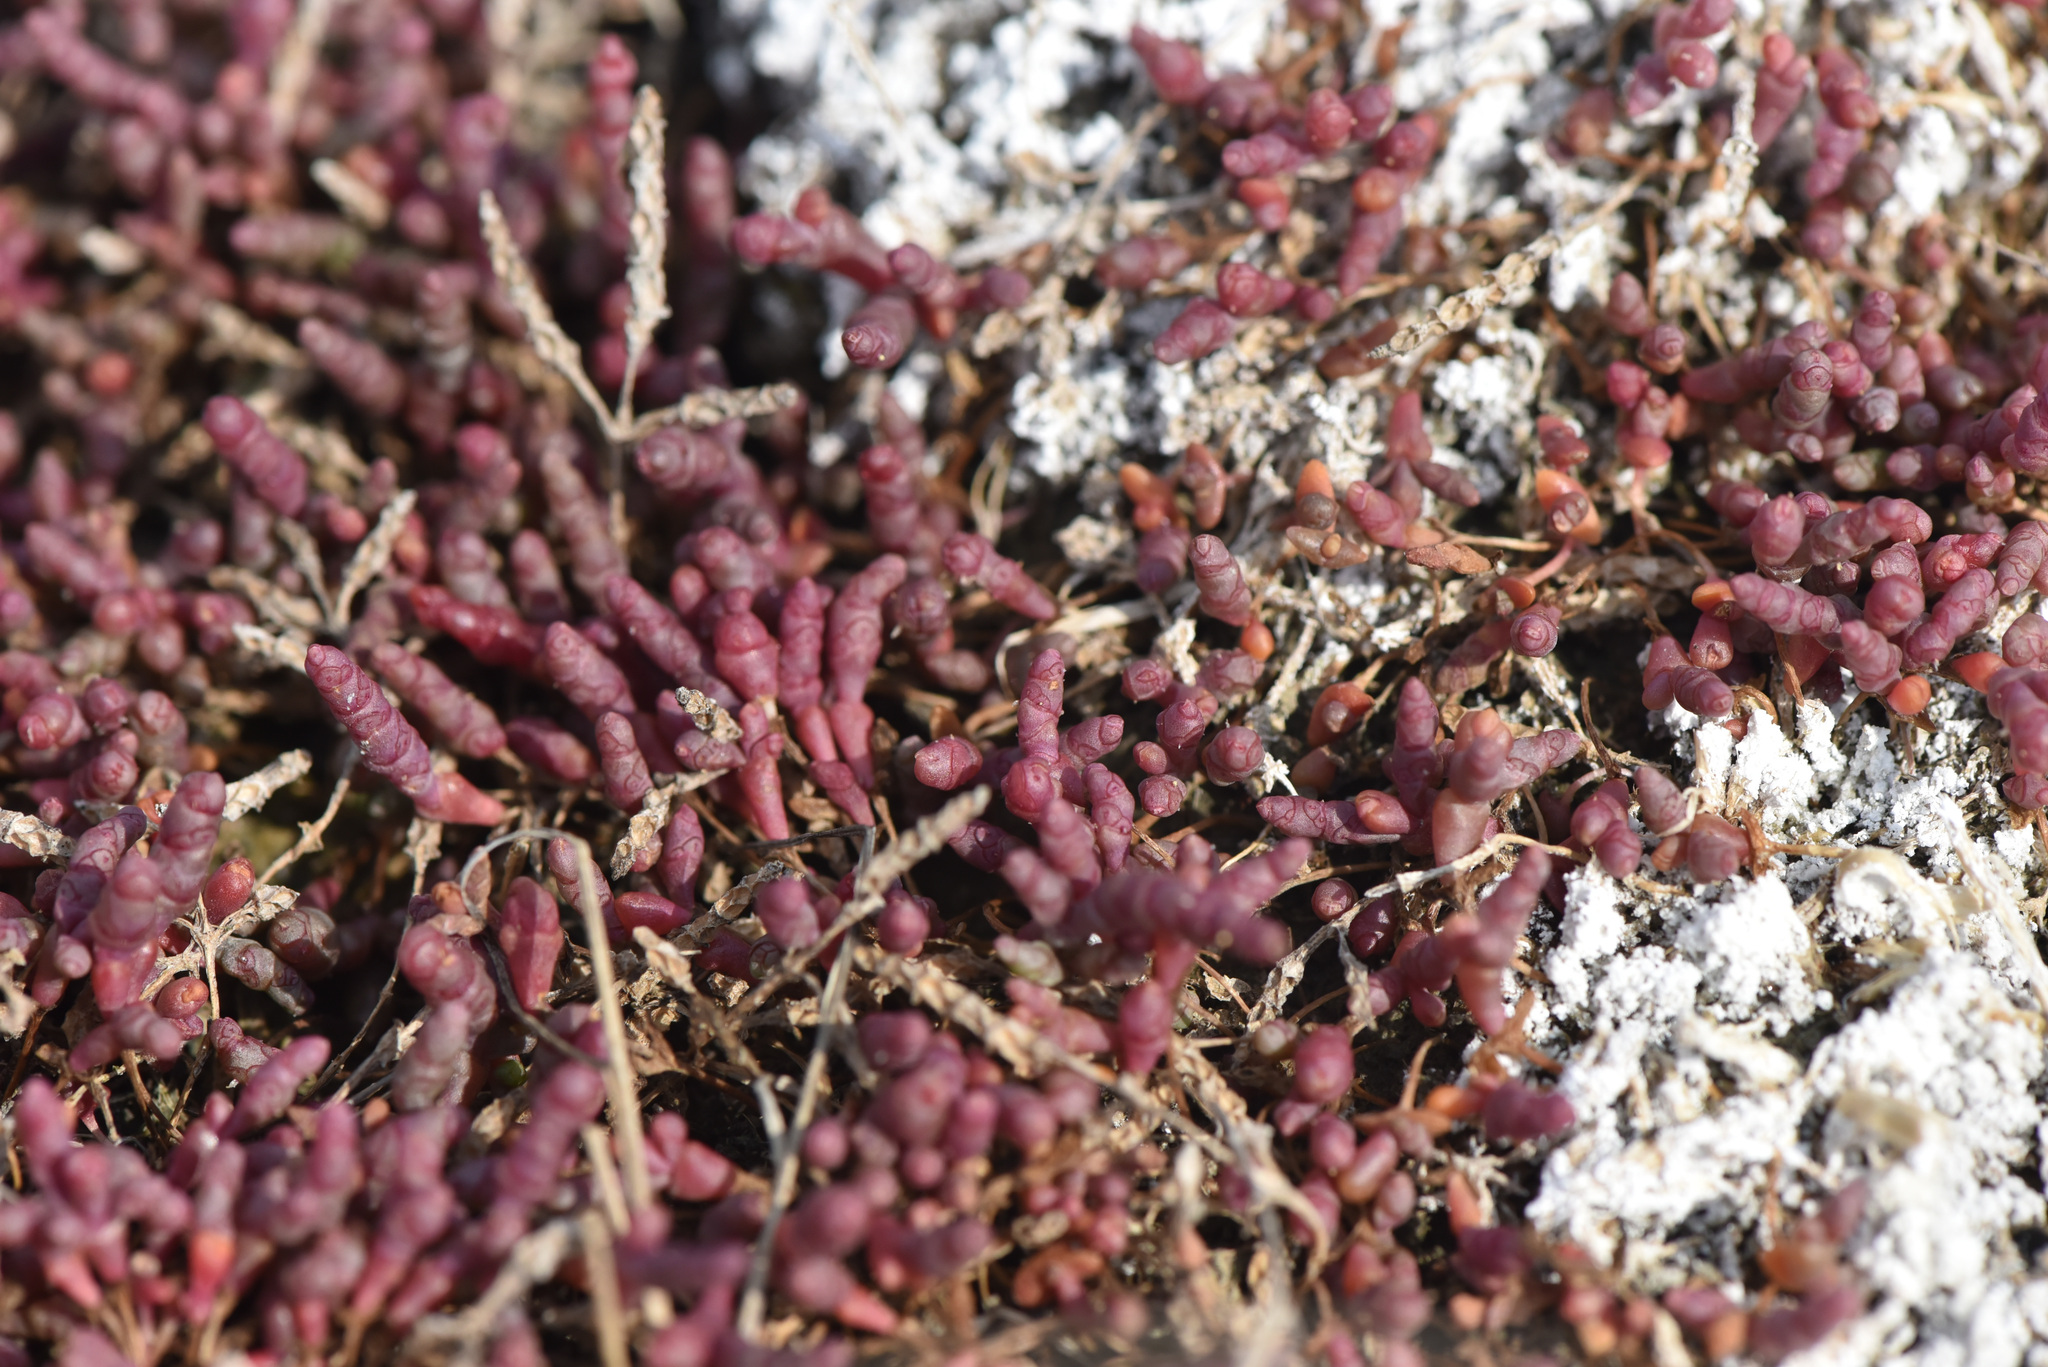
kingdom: Plantae
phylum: Tracheophyta
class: Magnoliopsida
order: Caryophyllales
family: Amaranthaceae
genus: Salicornia
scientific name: Salicornia rubra
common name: Red glasswort
